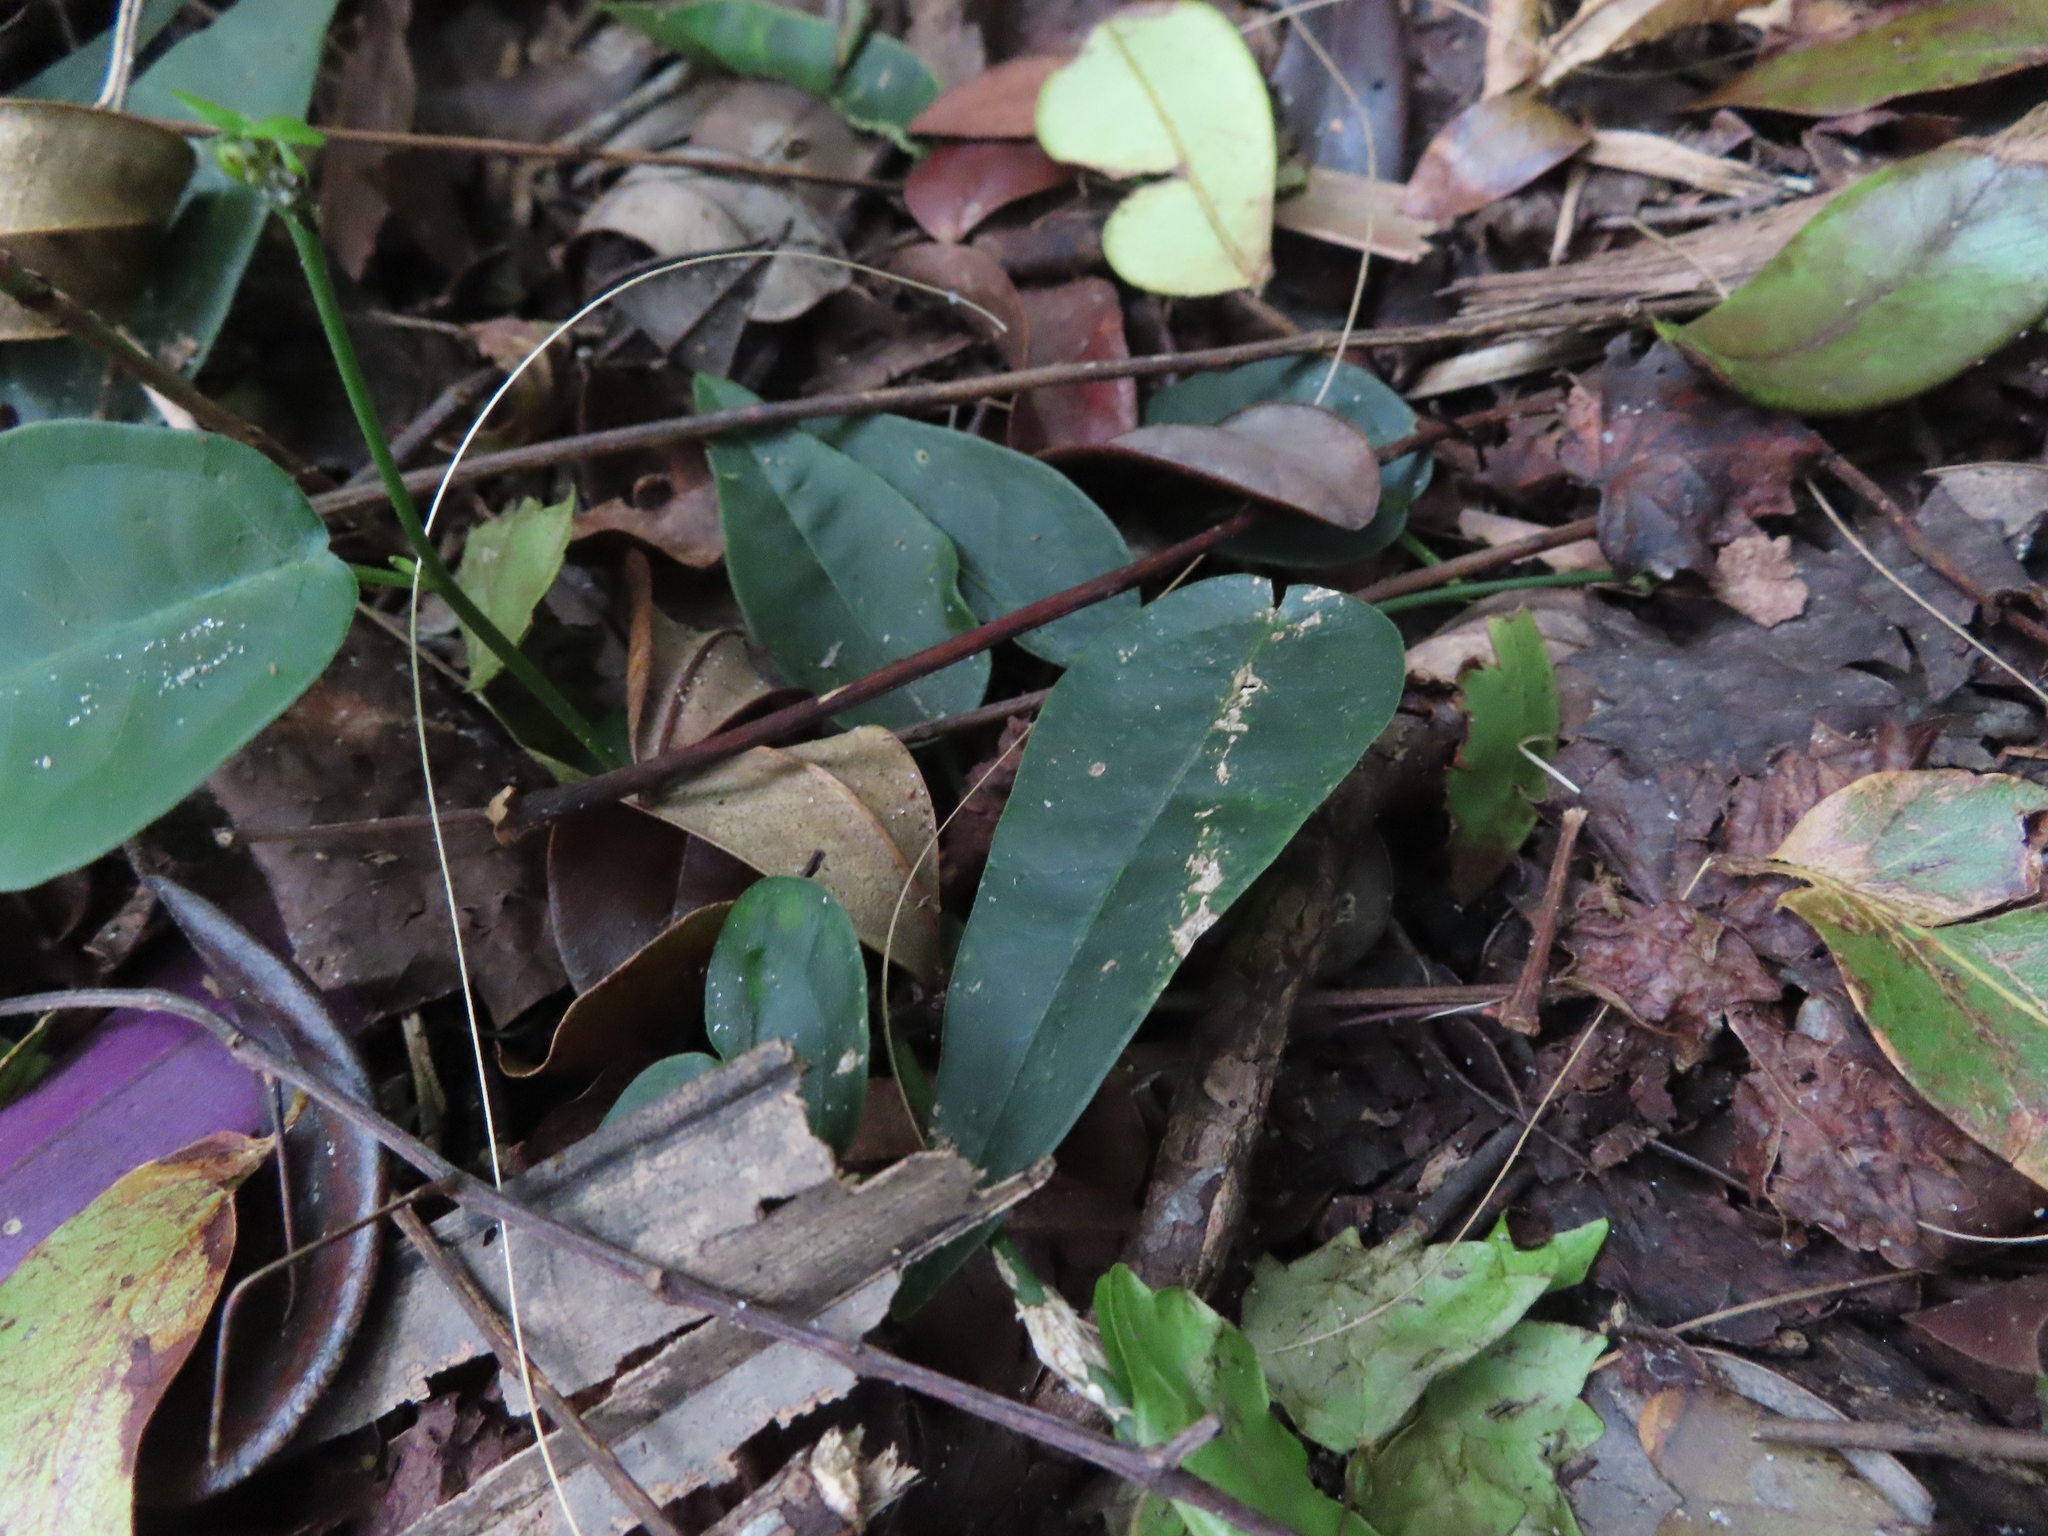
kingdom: Plantae
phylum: Tracheophyta
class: Magnoliopsida
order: Malpighiales
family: Passifloraceae
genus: Passiflora
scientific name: Passiflora pallida
